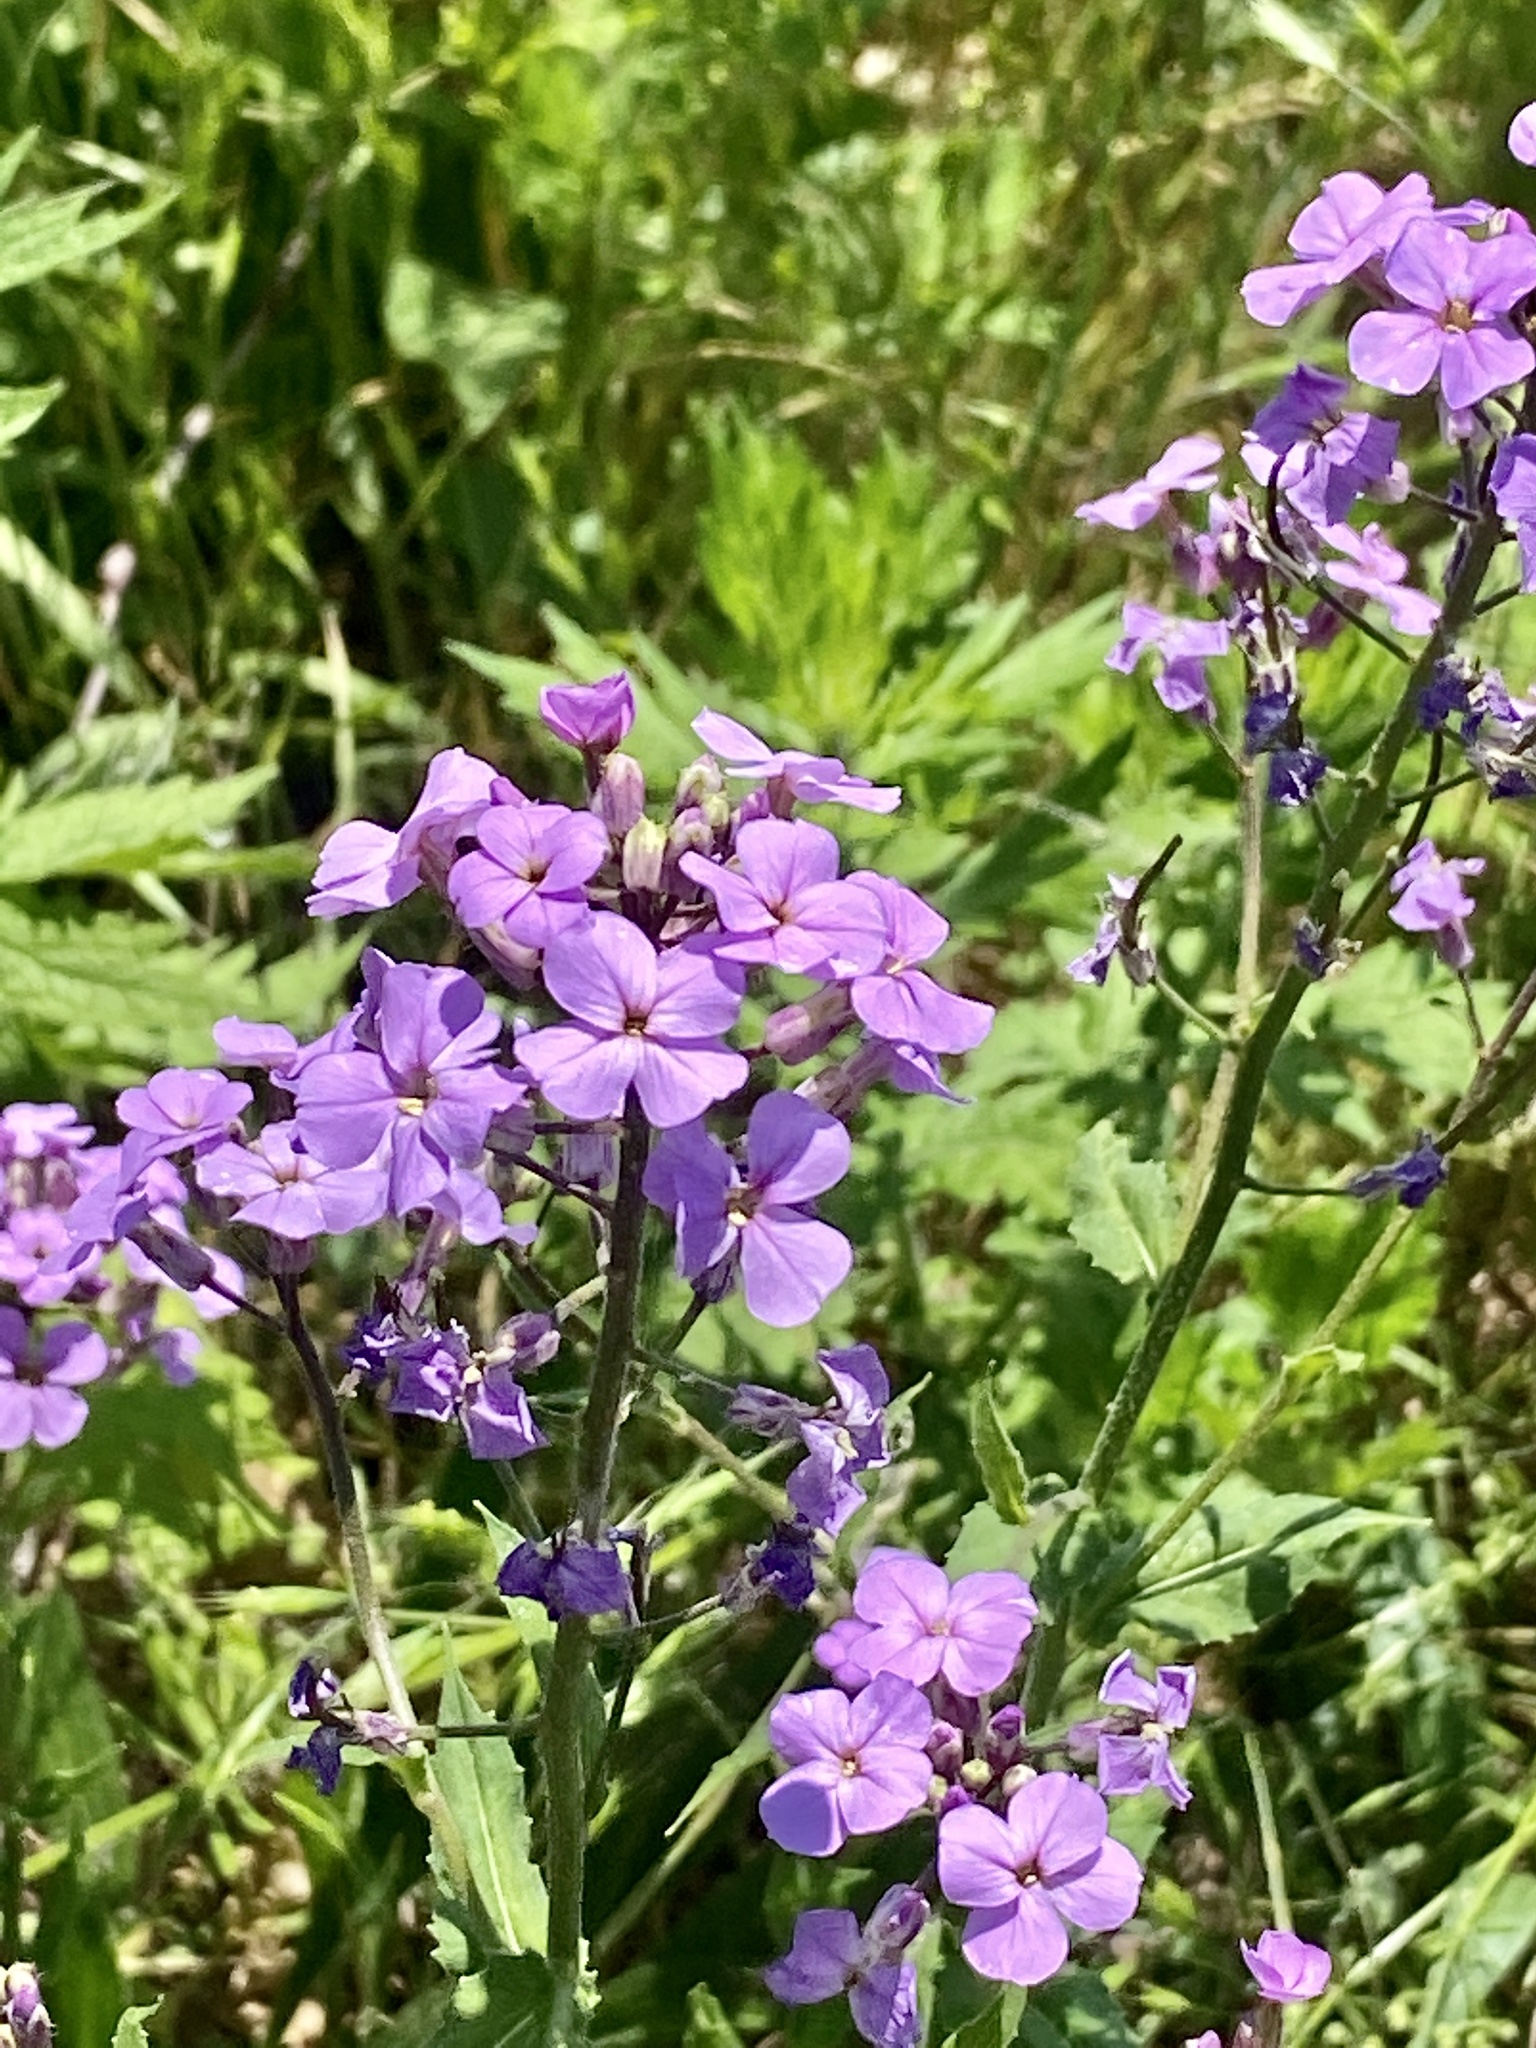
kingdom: Plantae
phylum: Tracheophyta
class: Magnoliopsida
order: Brassicales
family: Brassicaceae
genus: Hesperis
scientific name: Hesperis matronalis
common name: Dame's-violet
